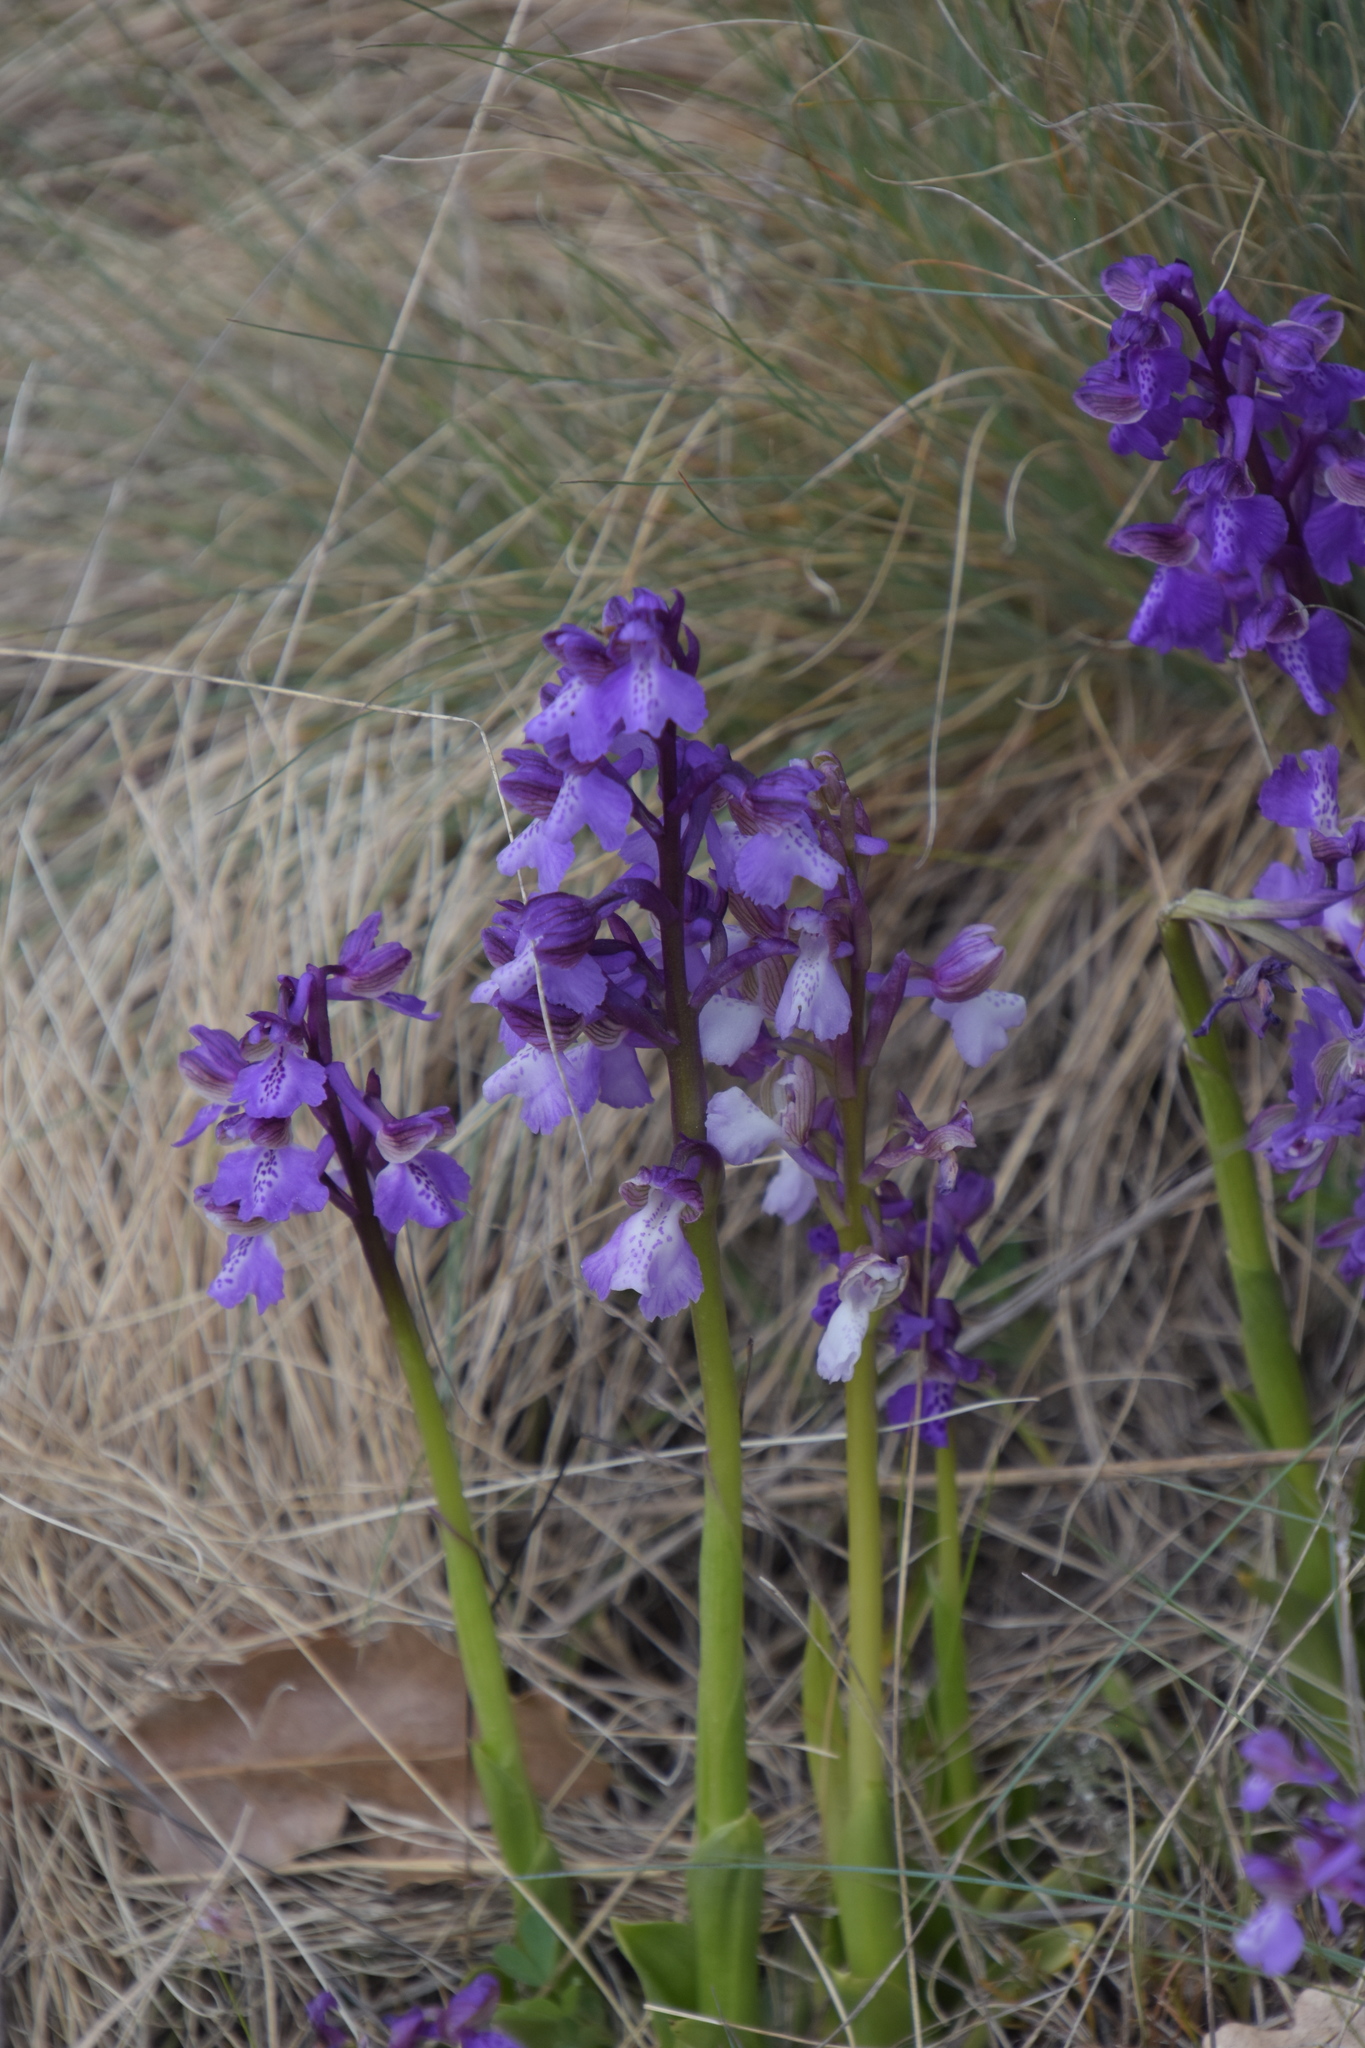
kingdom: Plantae
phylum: Tracheophyta
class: Liliopsida
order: Asparagales
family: Orchidaceae
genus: Anacamptis
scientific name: Anacamptis morio
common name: Green-winged orchid
